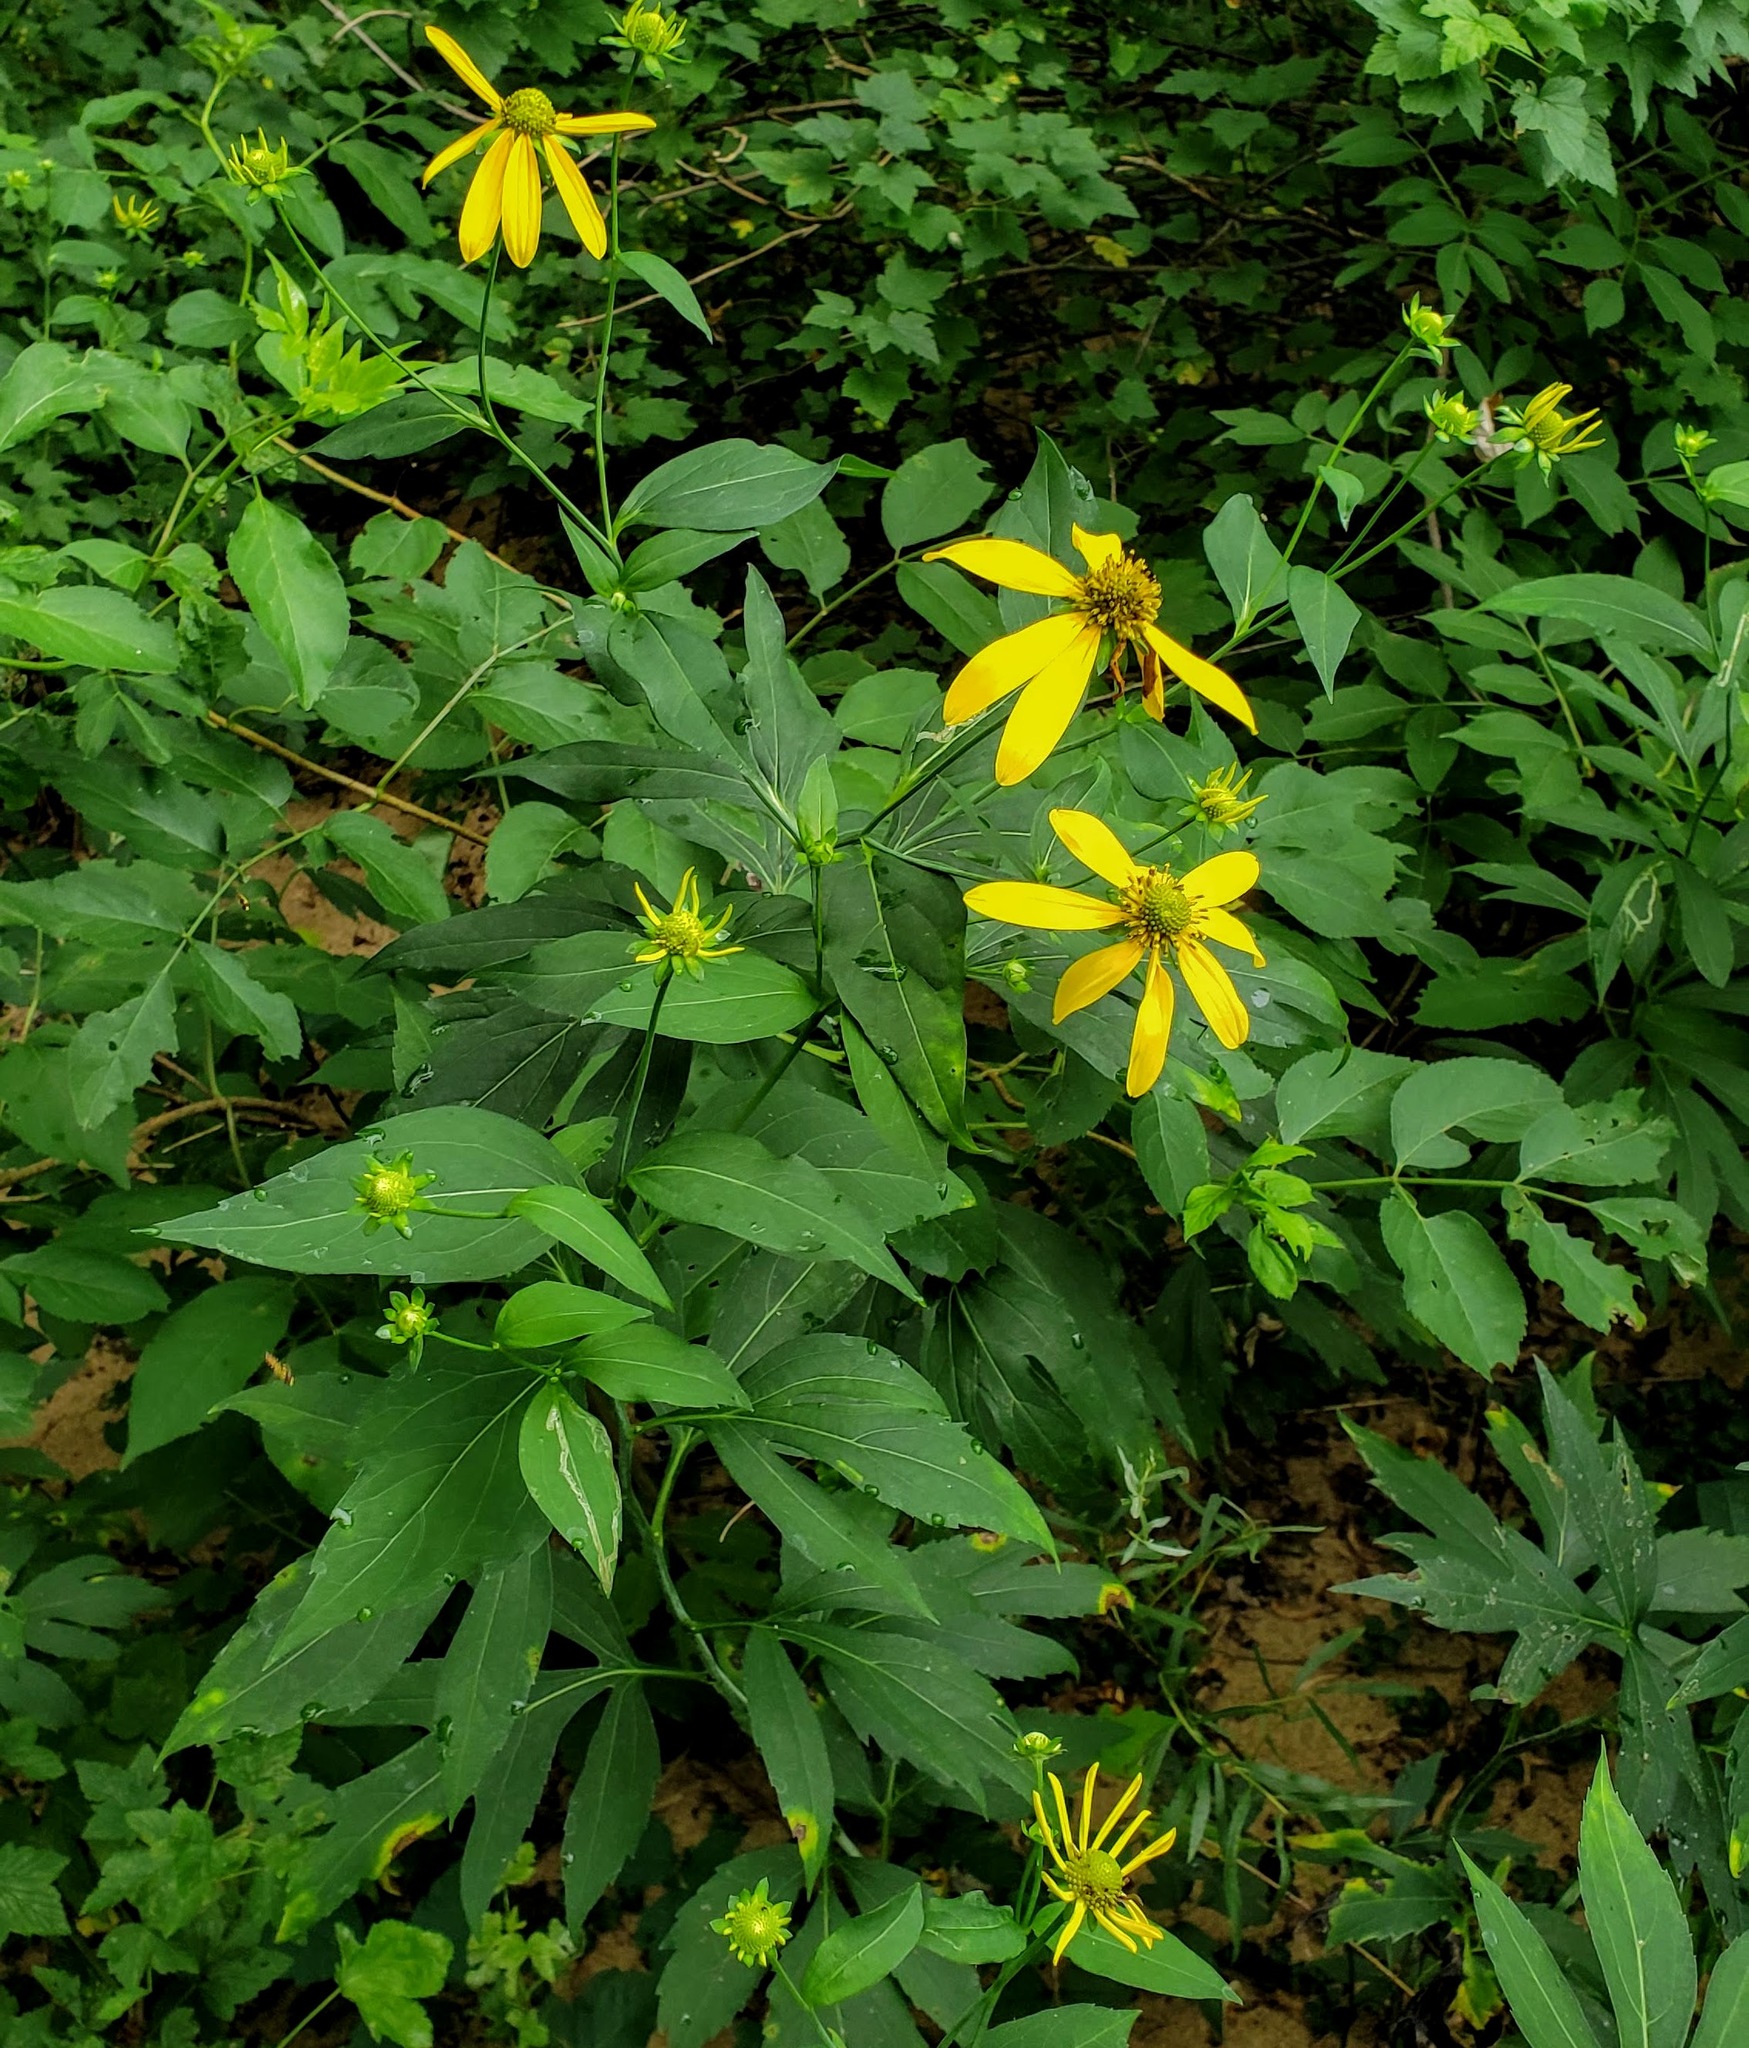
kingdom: Plantae
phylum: Tracheophyta
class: Magnoliopsida
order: Asterales
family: Asteraceae
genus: Rudbeckia
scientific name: Rudbeckia laciniata
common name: Coneflower
